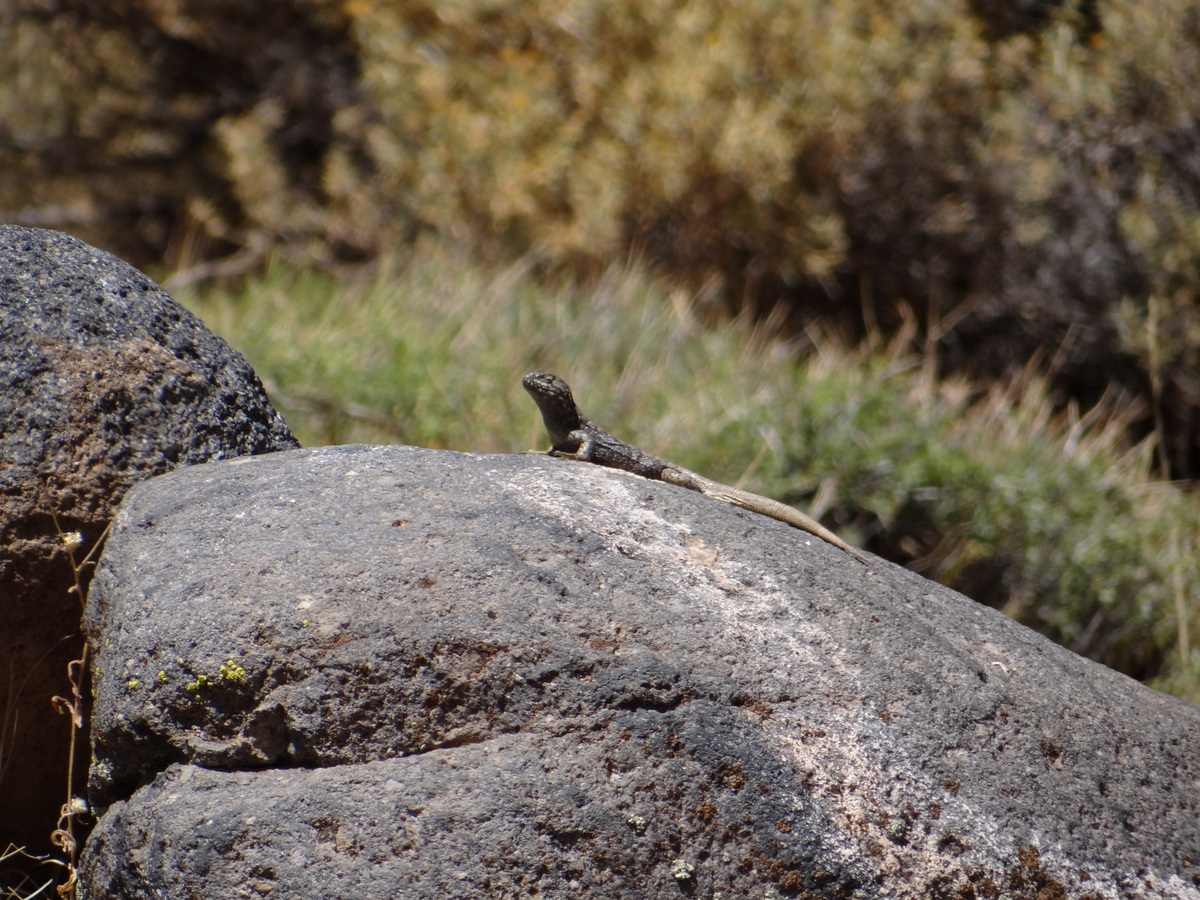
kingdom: Animalia
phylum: Chordata
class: Squamata
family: Liolaemidae
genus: Liolaemus
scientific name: Liolaemus buergeri
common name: Buerger's tree iguana
